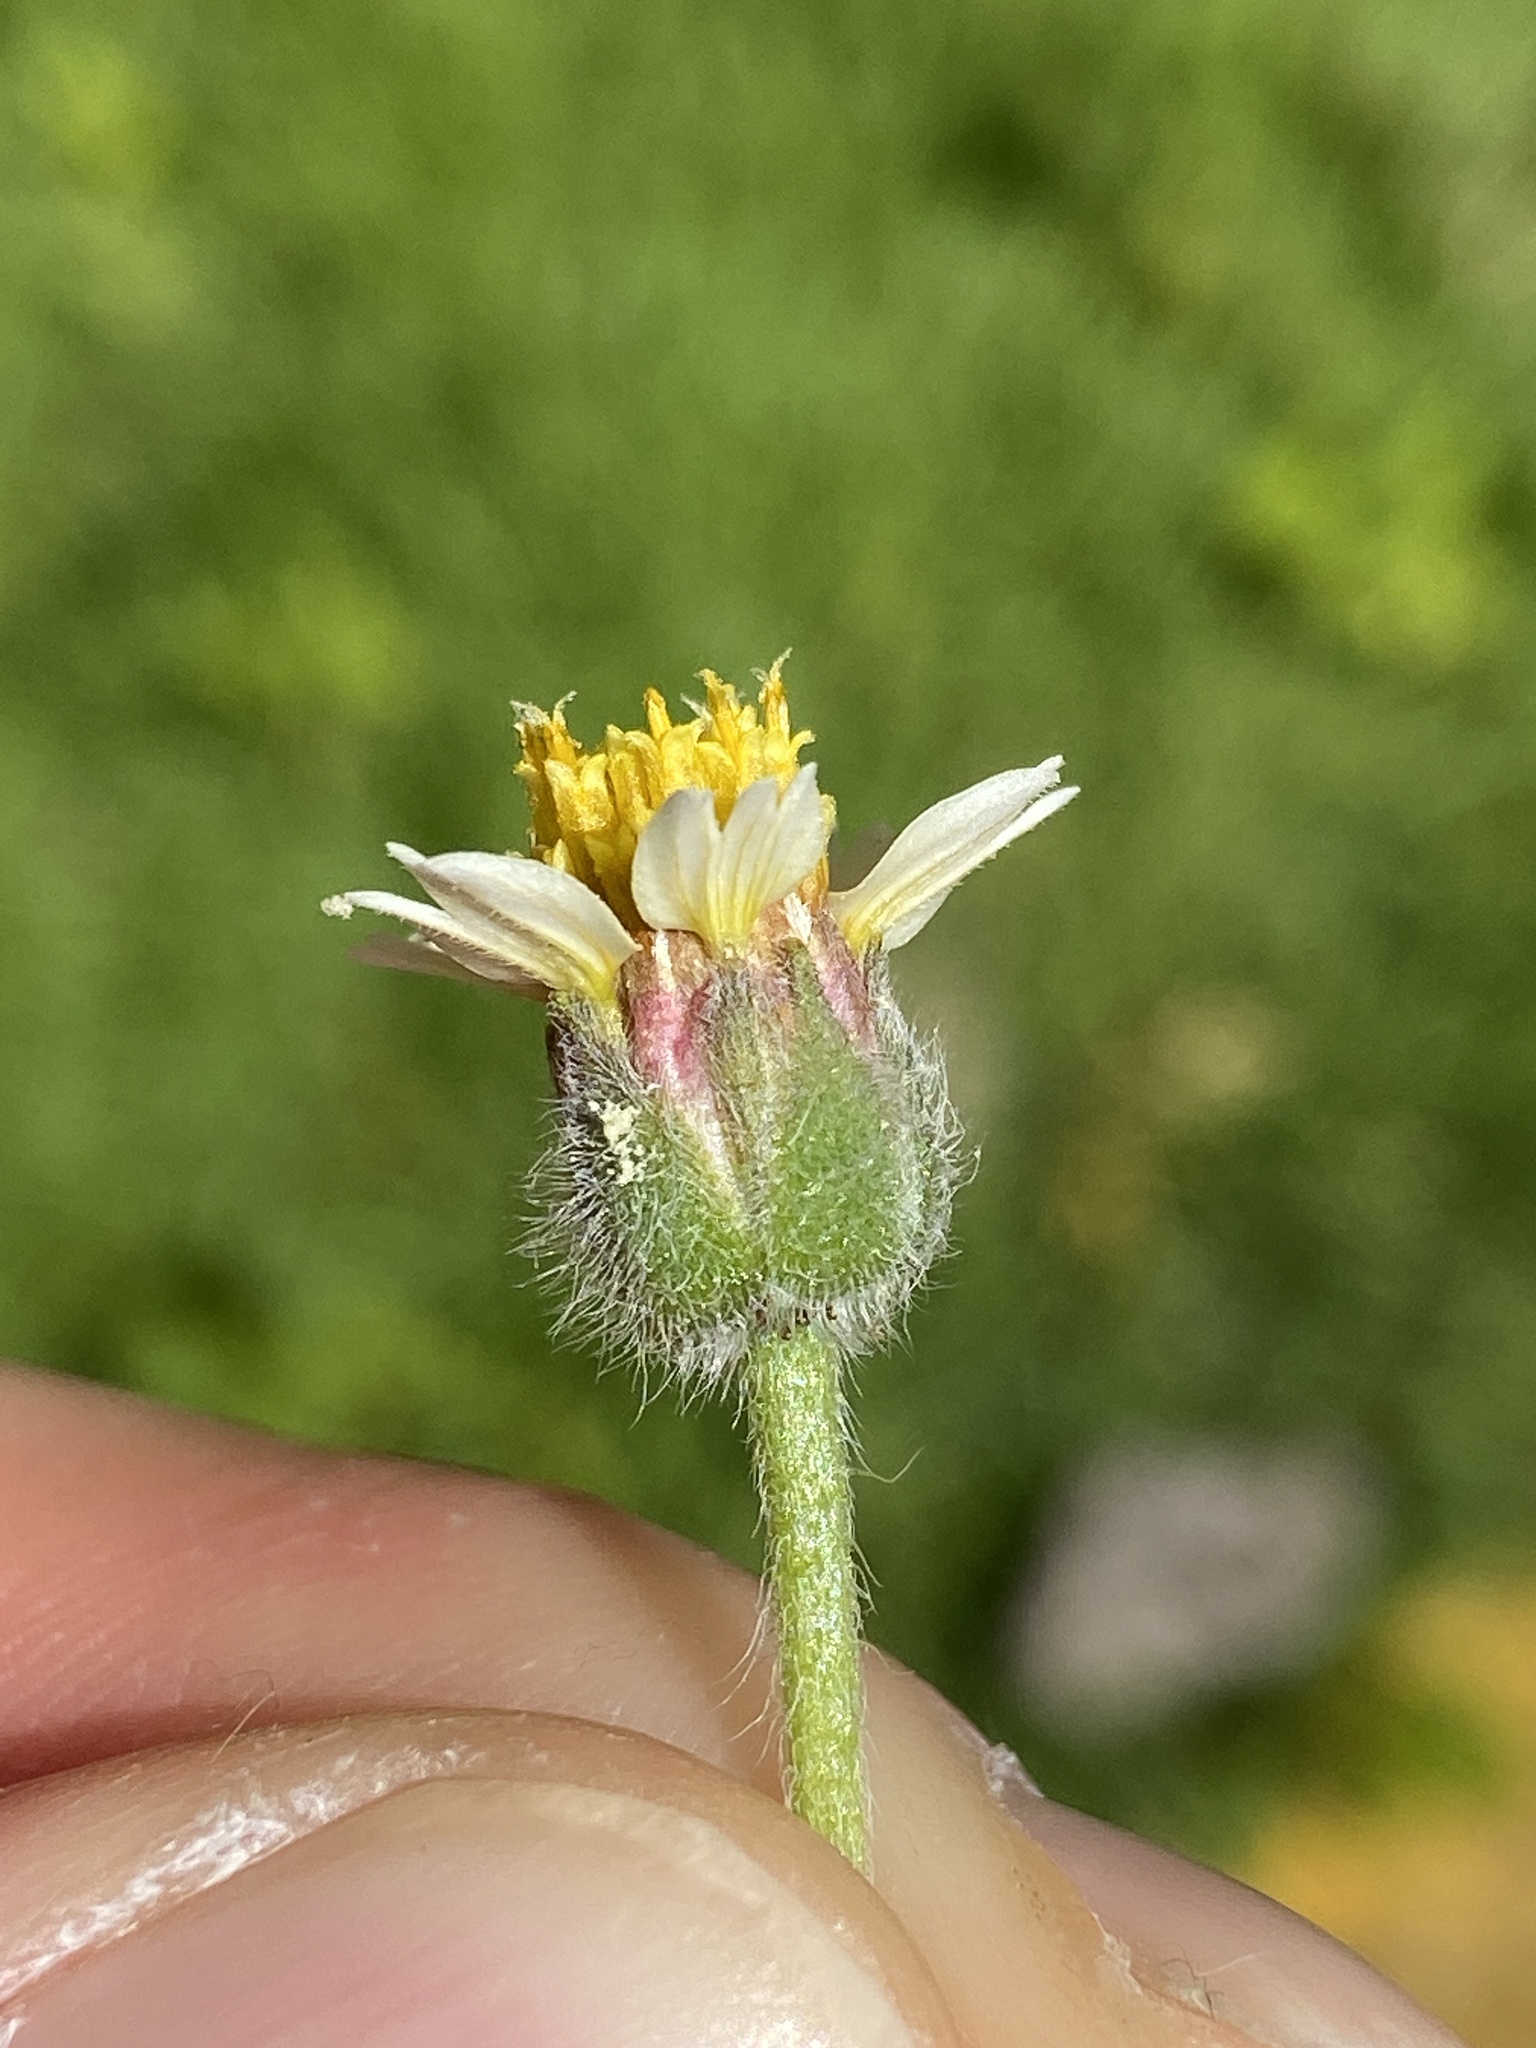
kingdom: Plantae
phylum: Tracheophyta
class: Magnoliopsida
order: Asterales
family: Asteraceae
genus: Tridax
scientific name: Tridax procumbens
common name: Coatbuttons
